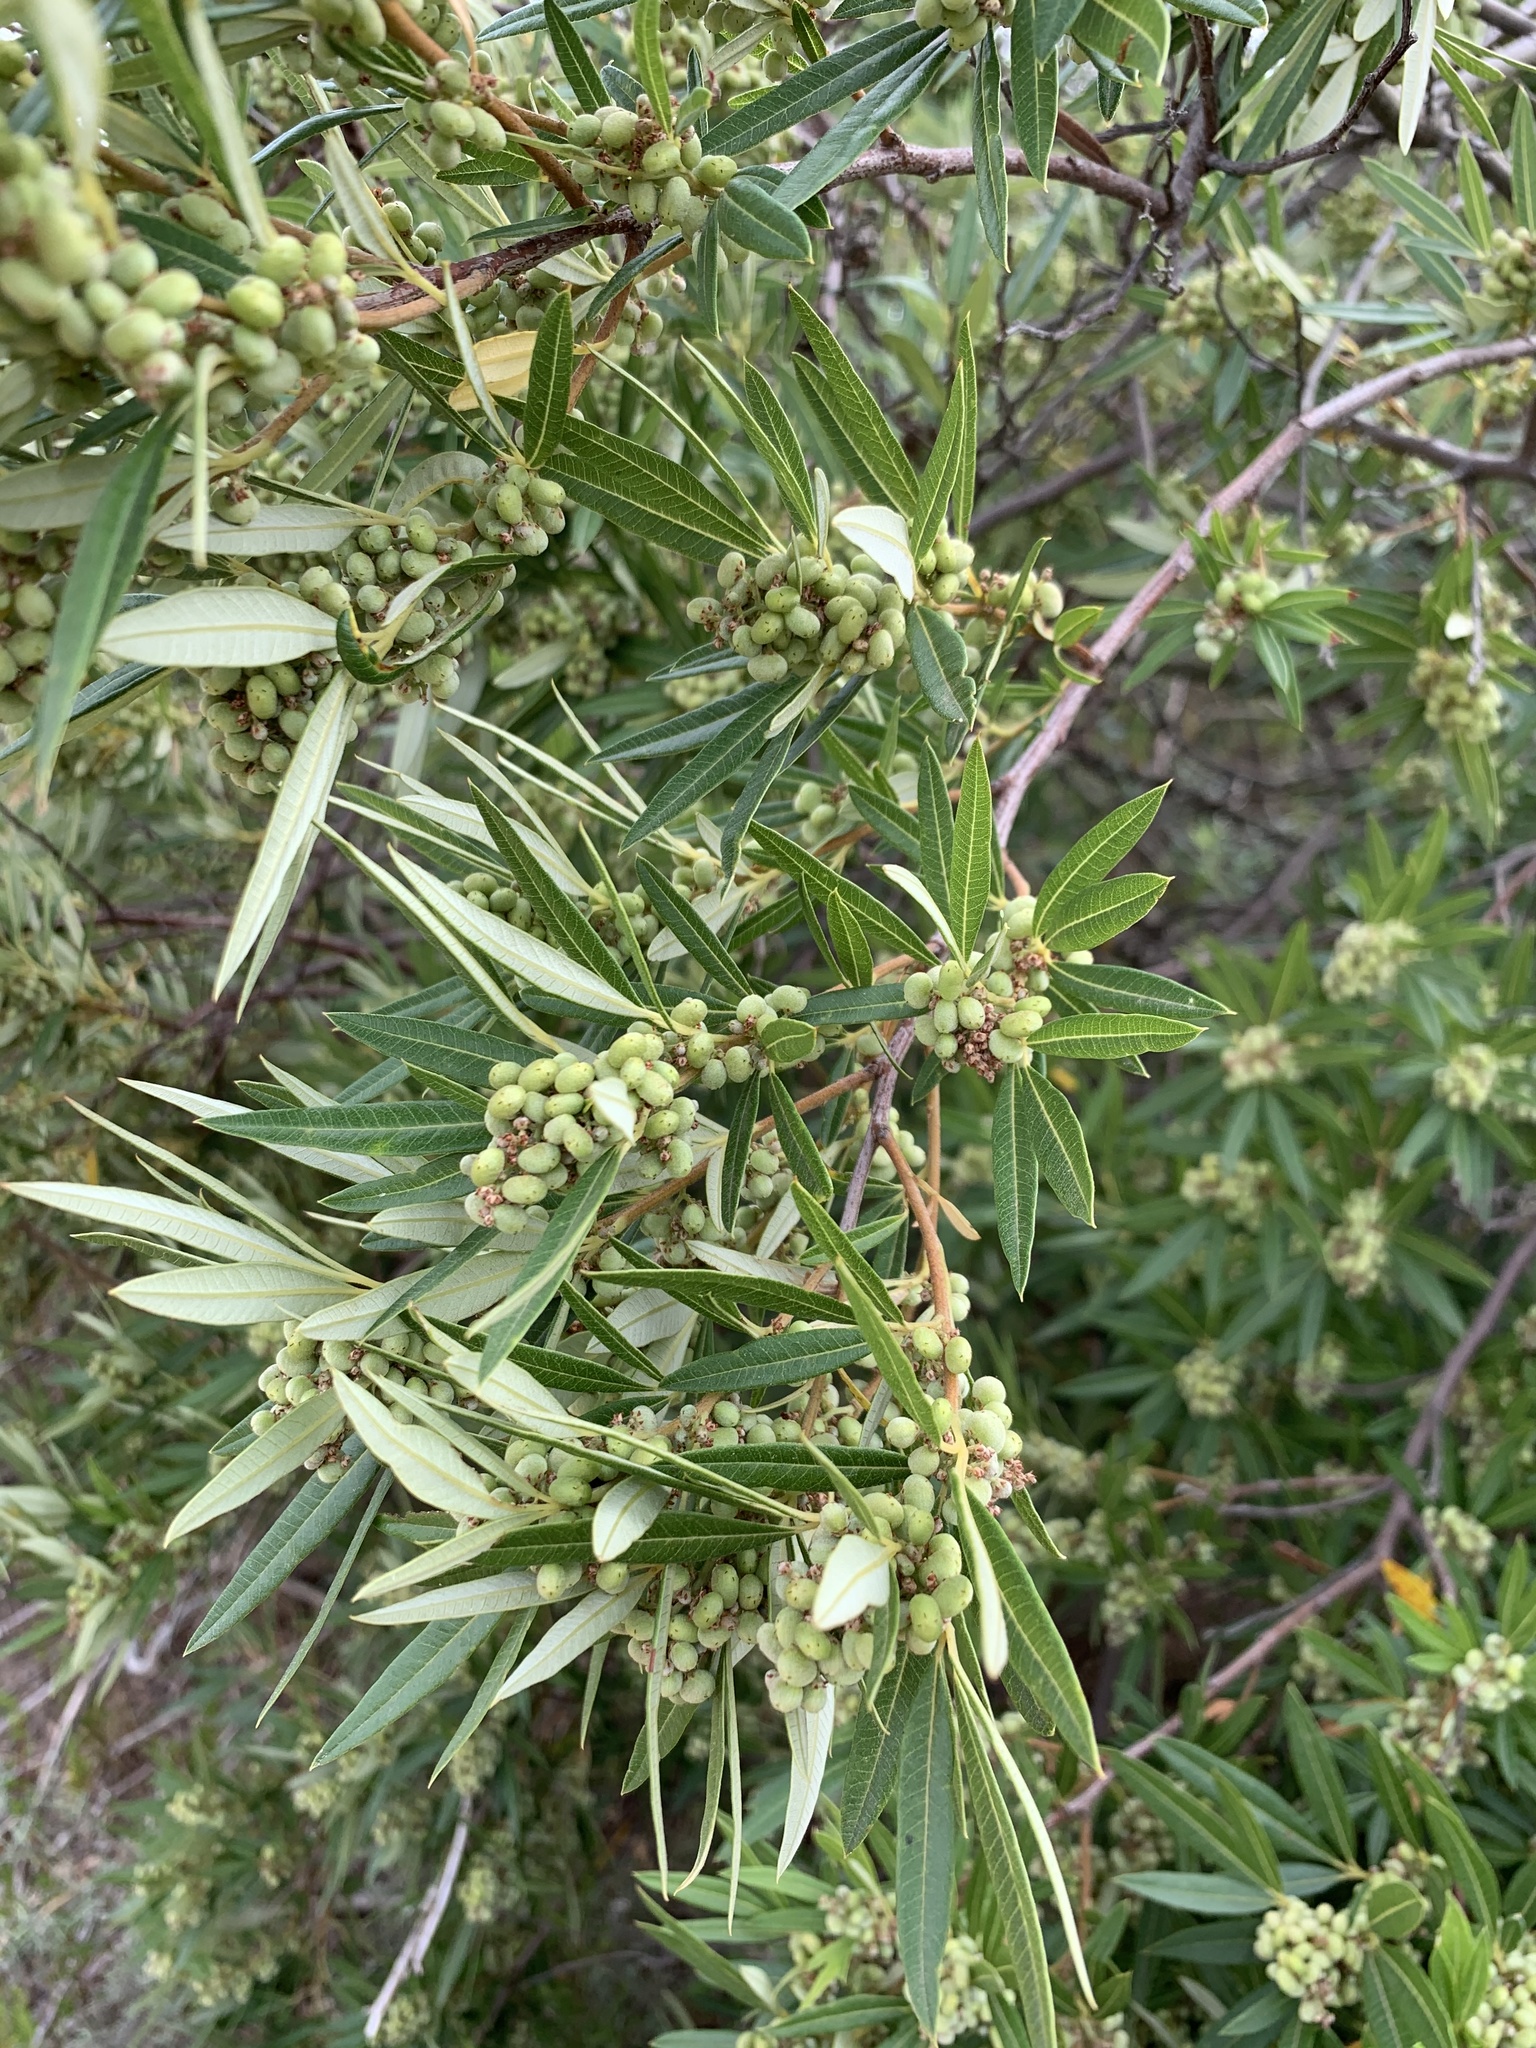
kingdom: Plantae
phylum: Tracheophyta
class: Magnoliopsida
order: Sapindales
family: Anacardiaceae
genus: Searsia
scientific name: Searsia angustifolia
